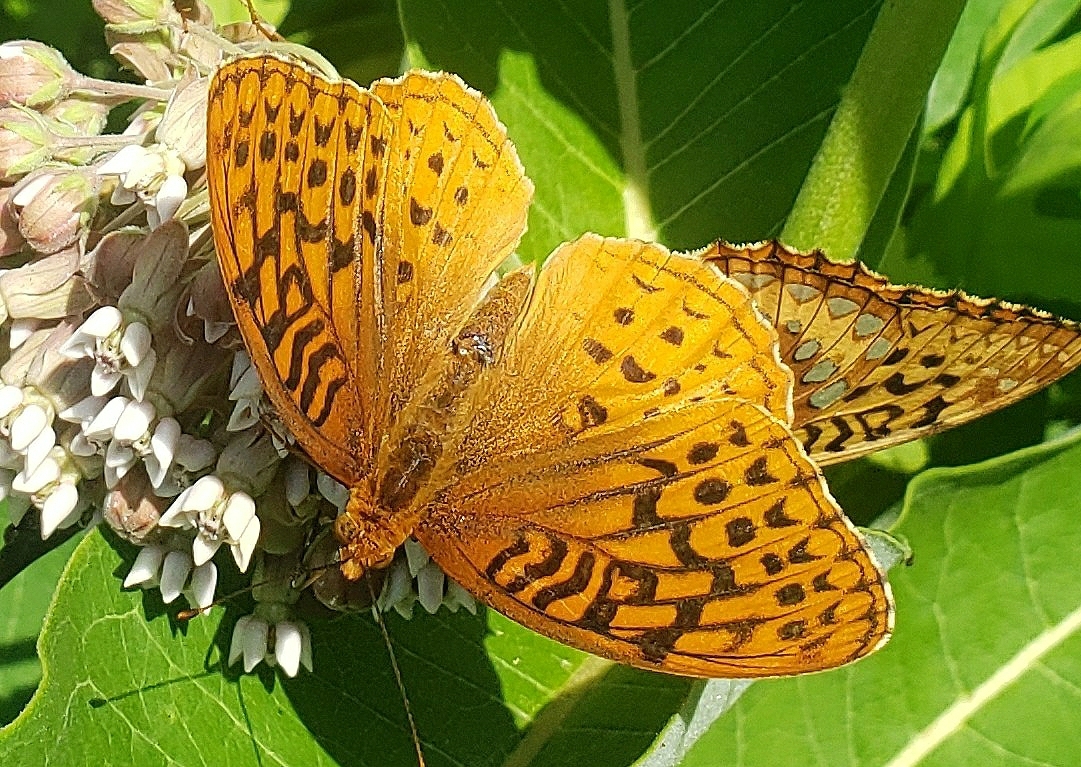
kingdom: Animalia
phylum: Arthropoda
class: Insecta
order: Lepidoptera
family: Nymphalidae
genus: Speyeria
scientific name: Speyeria cybele
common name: Great spangled fritillary
